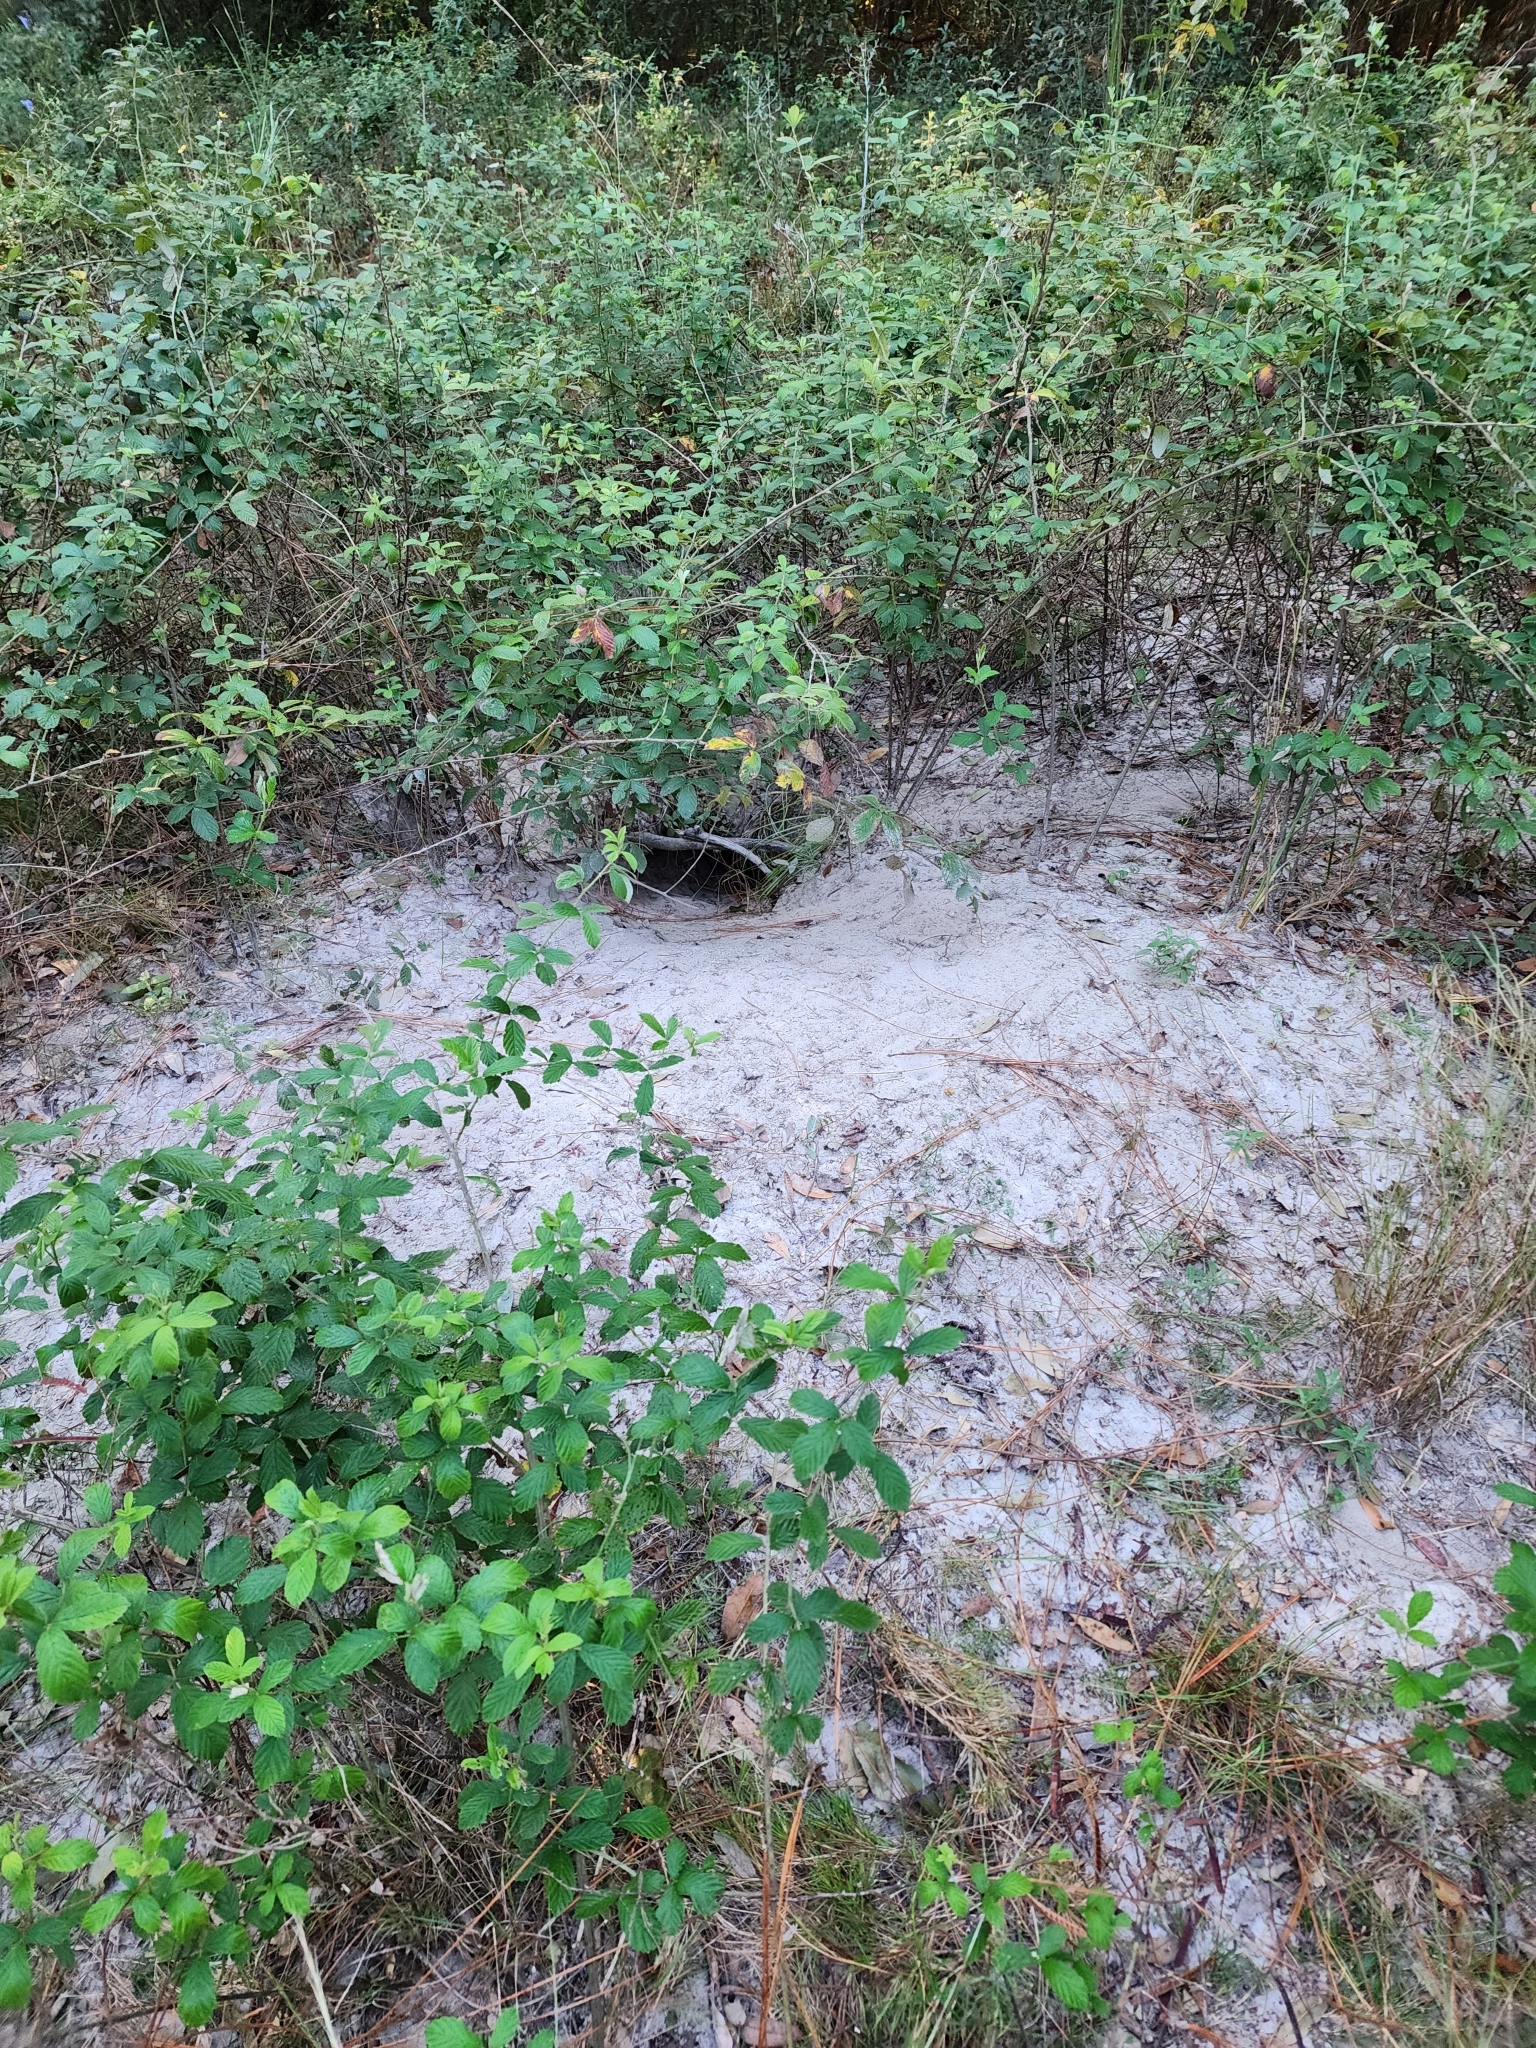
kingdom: Animalia
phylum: Chordata
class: Testudines
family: Testudinidae
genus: Gopherus
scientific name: Gopherus polyphemus
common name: Florida gopher tortoise
